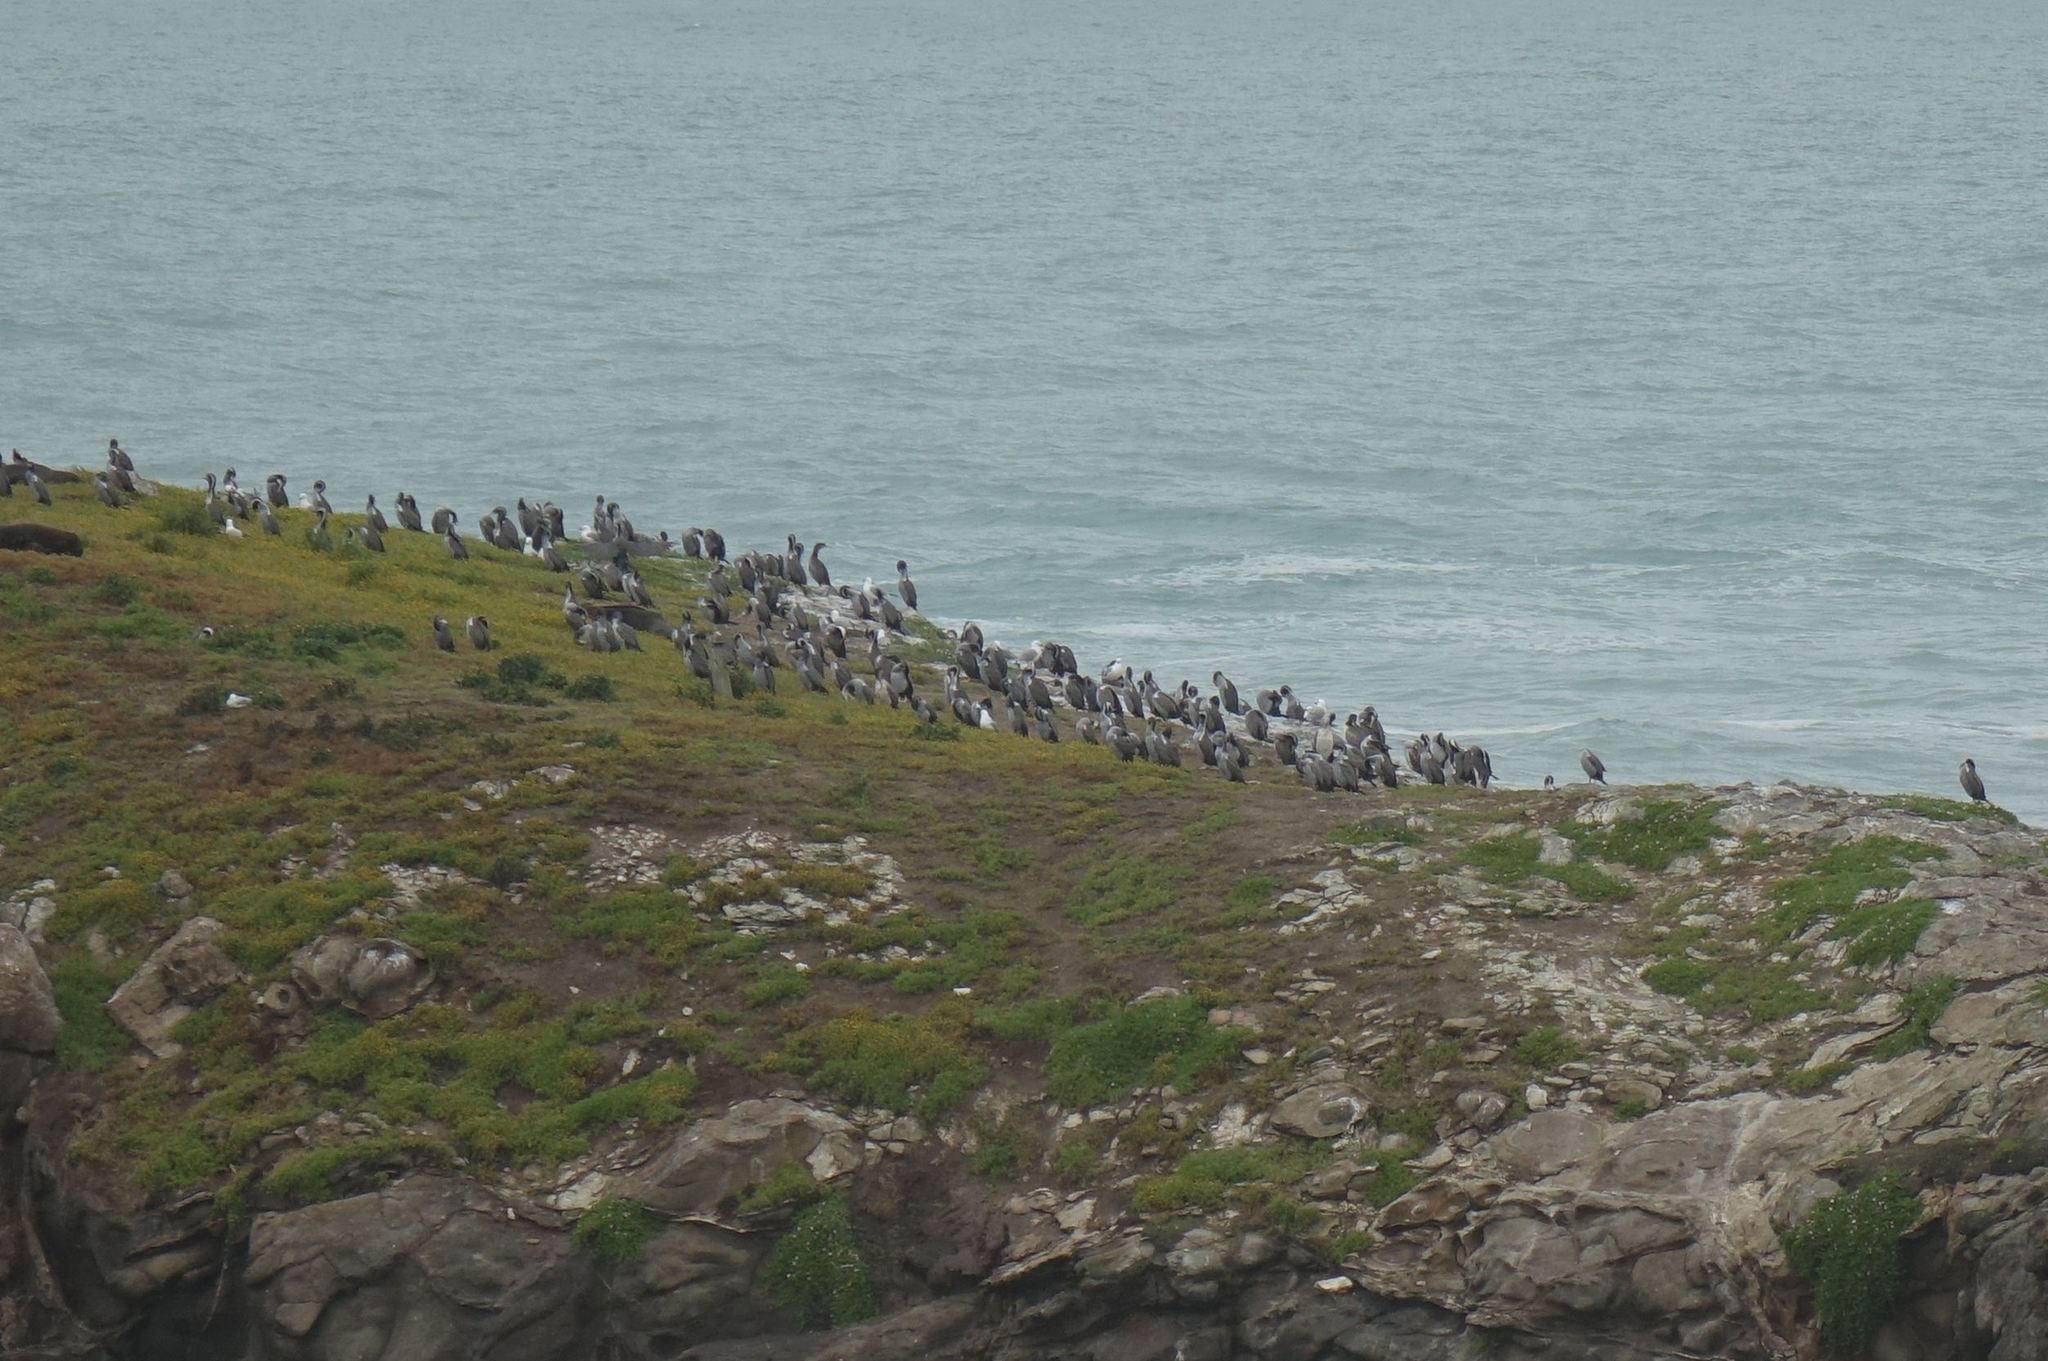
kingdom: Animalia
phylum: Chordata
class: Aves
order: Suliformes
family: Phalacrocoracidae
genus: Phalacrocorax
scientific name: Phalacrocorax punctatus
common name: Spotted shag
